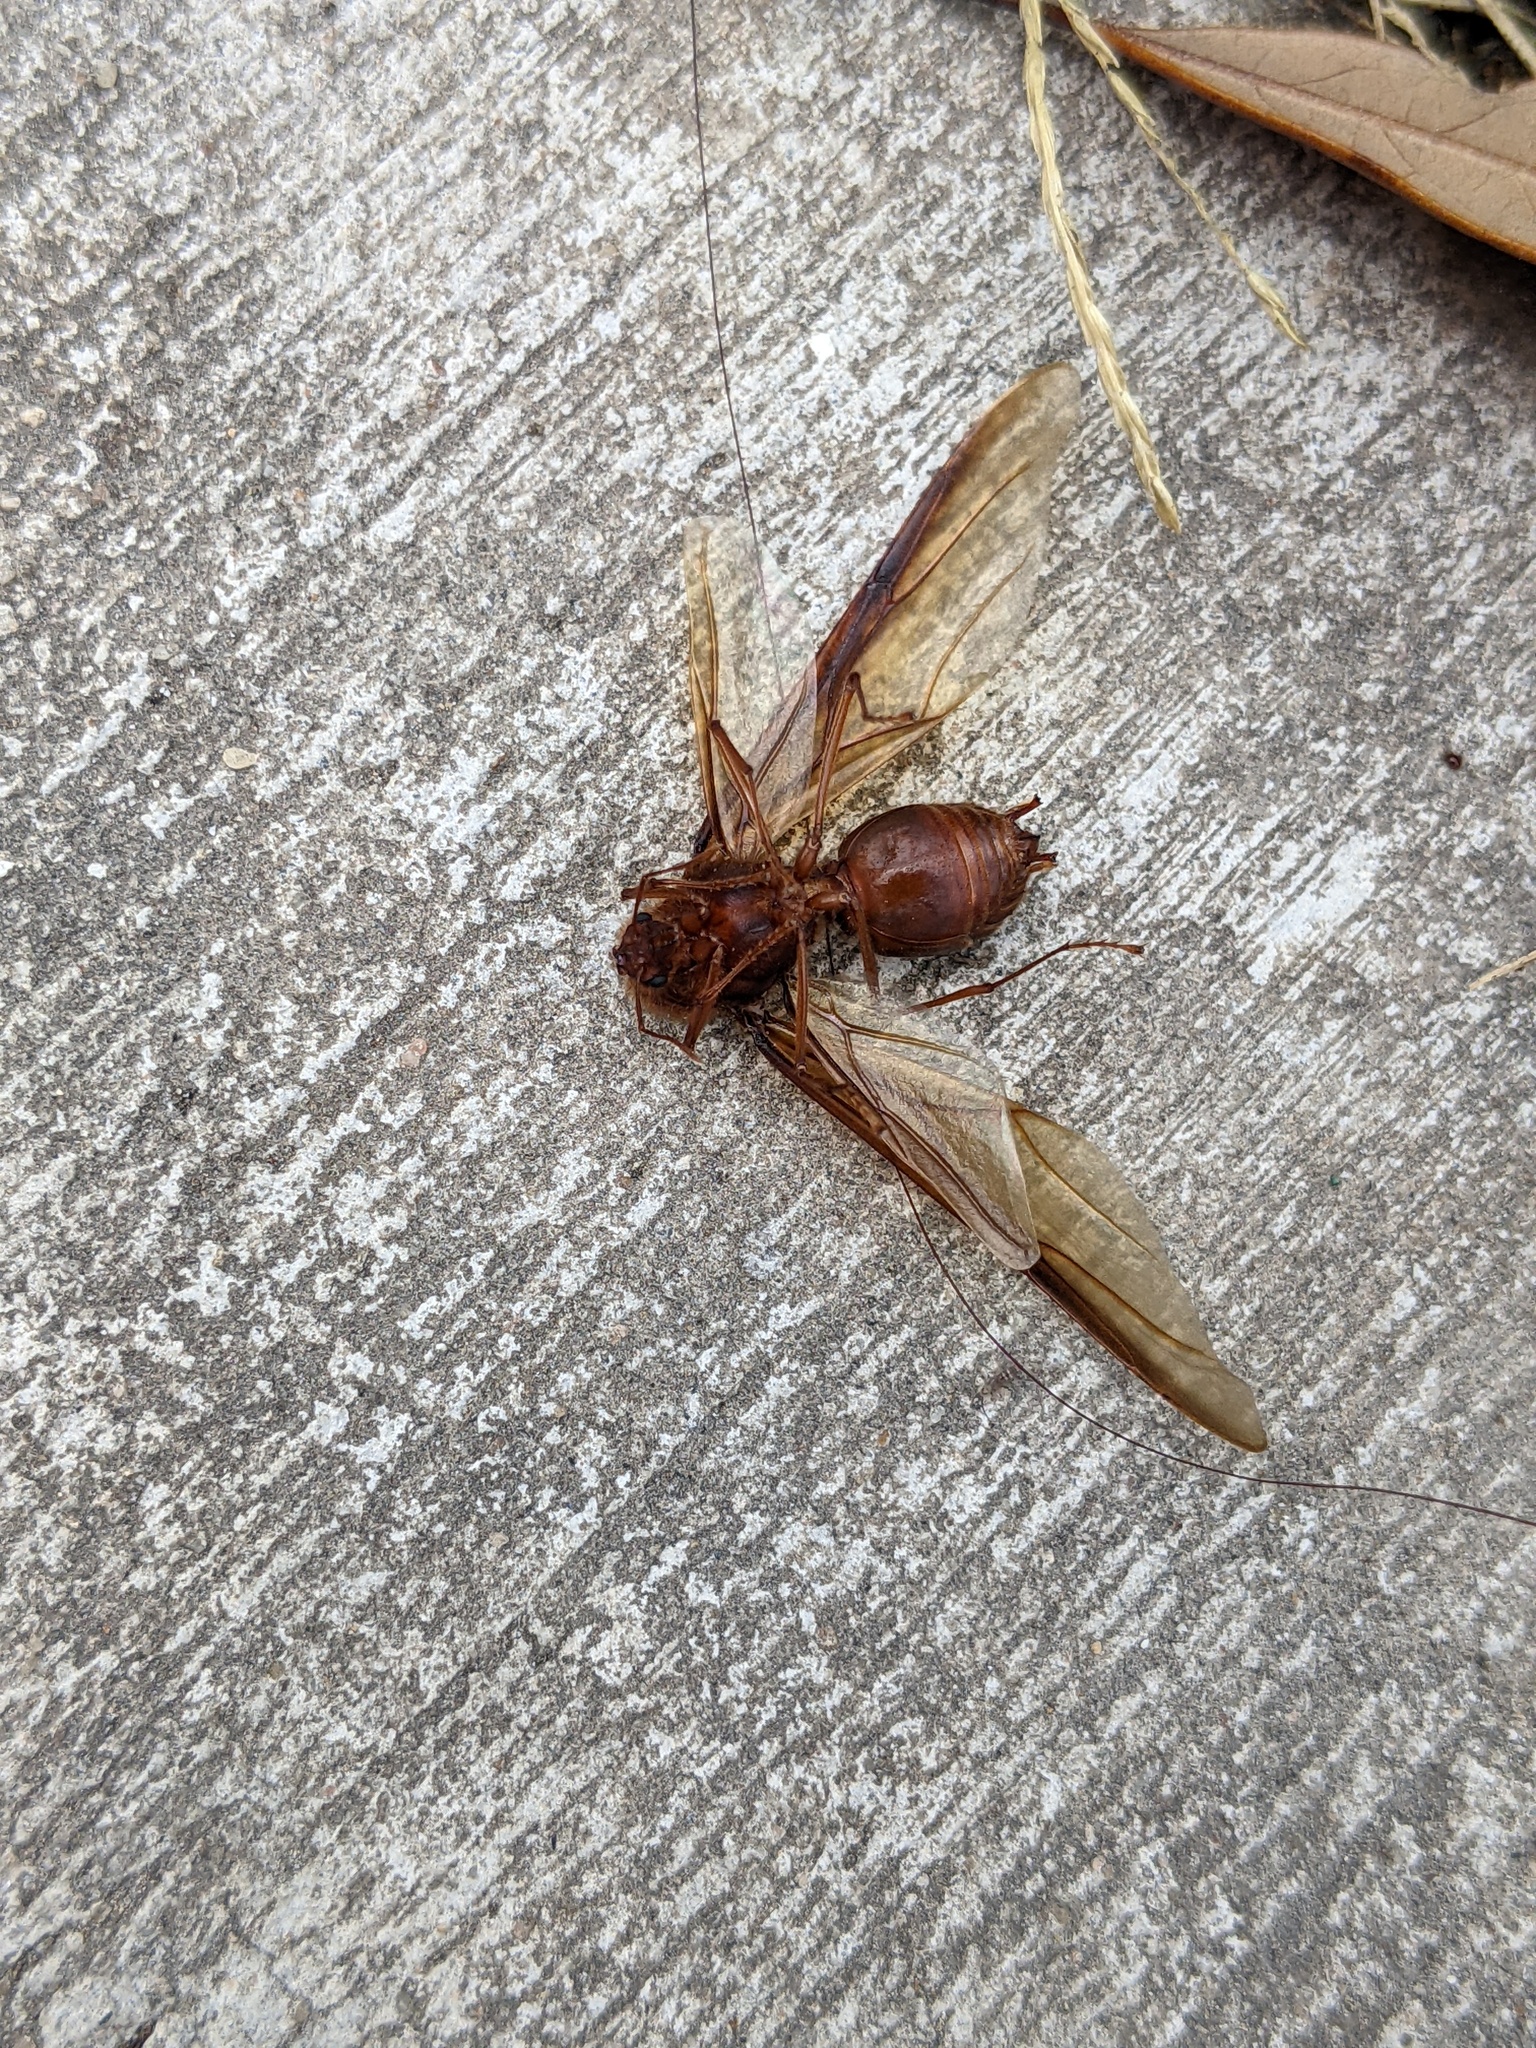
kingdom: Animalia
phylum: Arthropoda
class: Insecta
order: Hymenoptera
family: Formicidae
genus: Atta
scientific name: Atta texana
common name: Texas leafcutting ant
